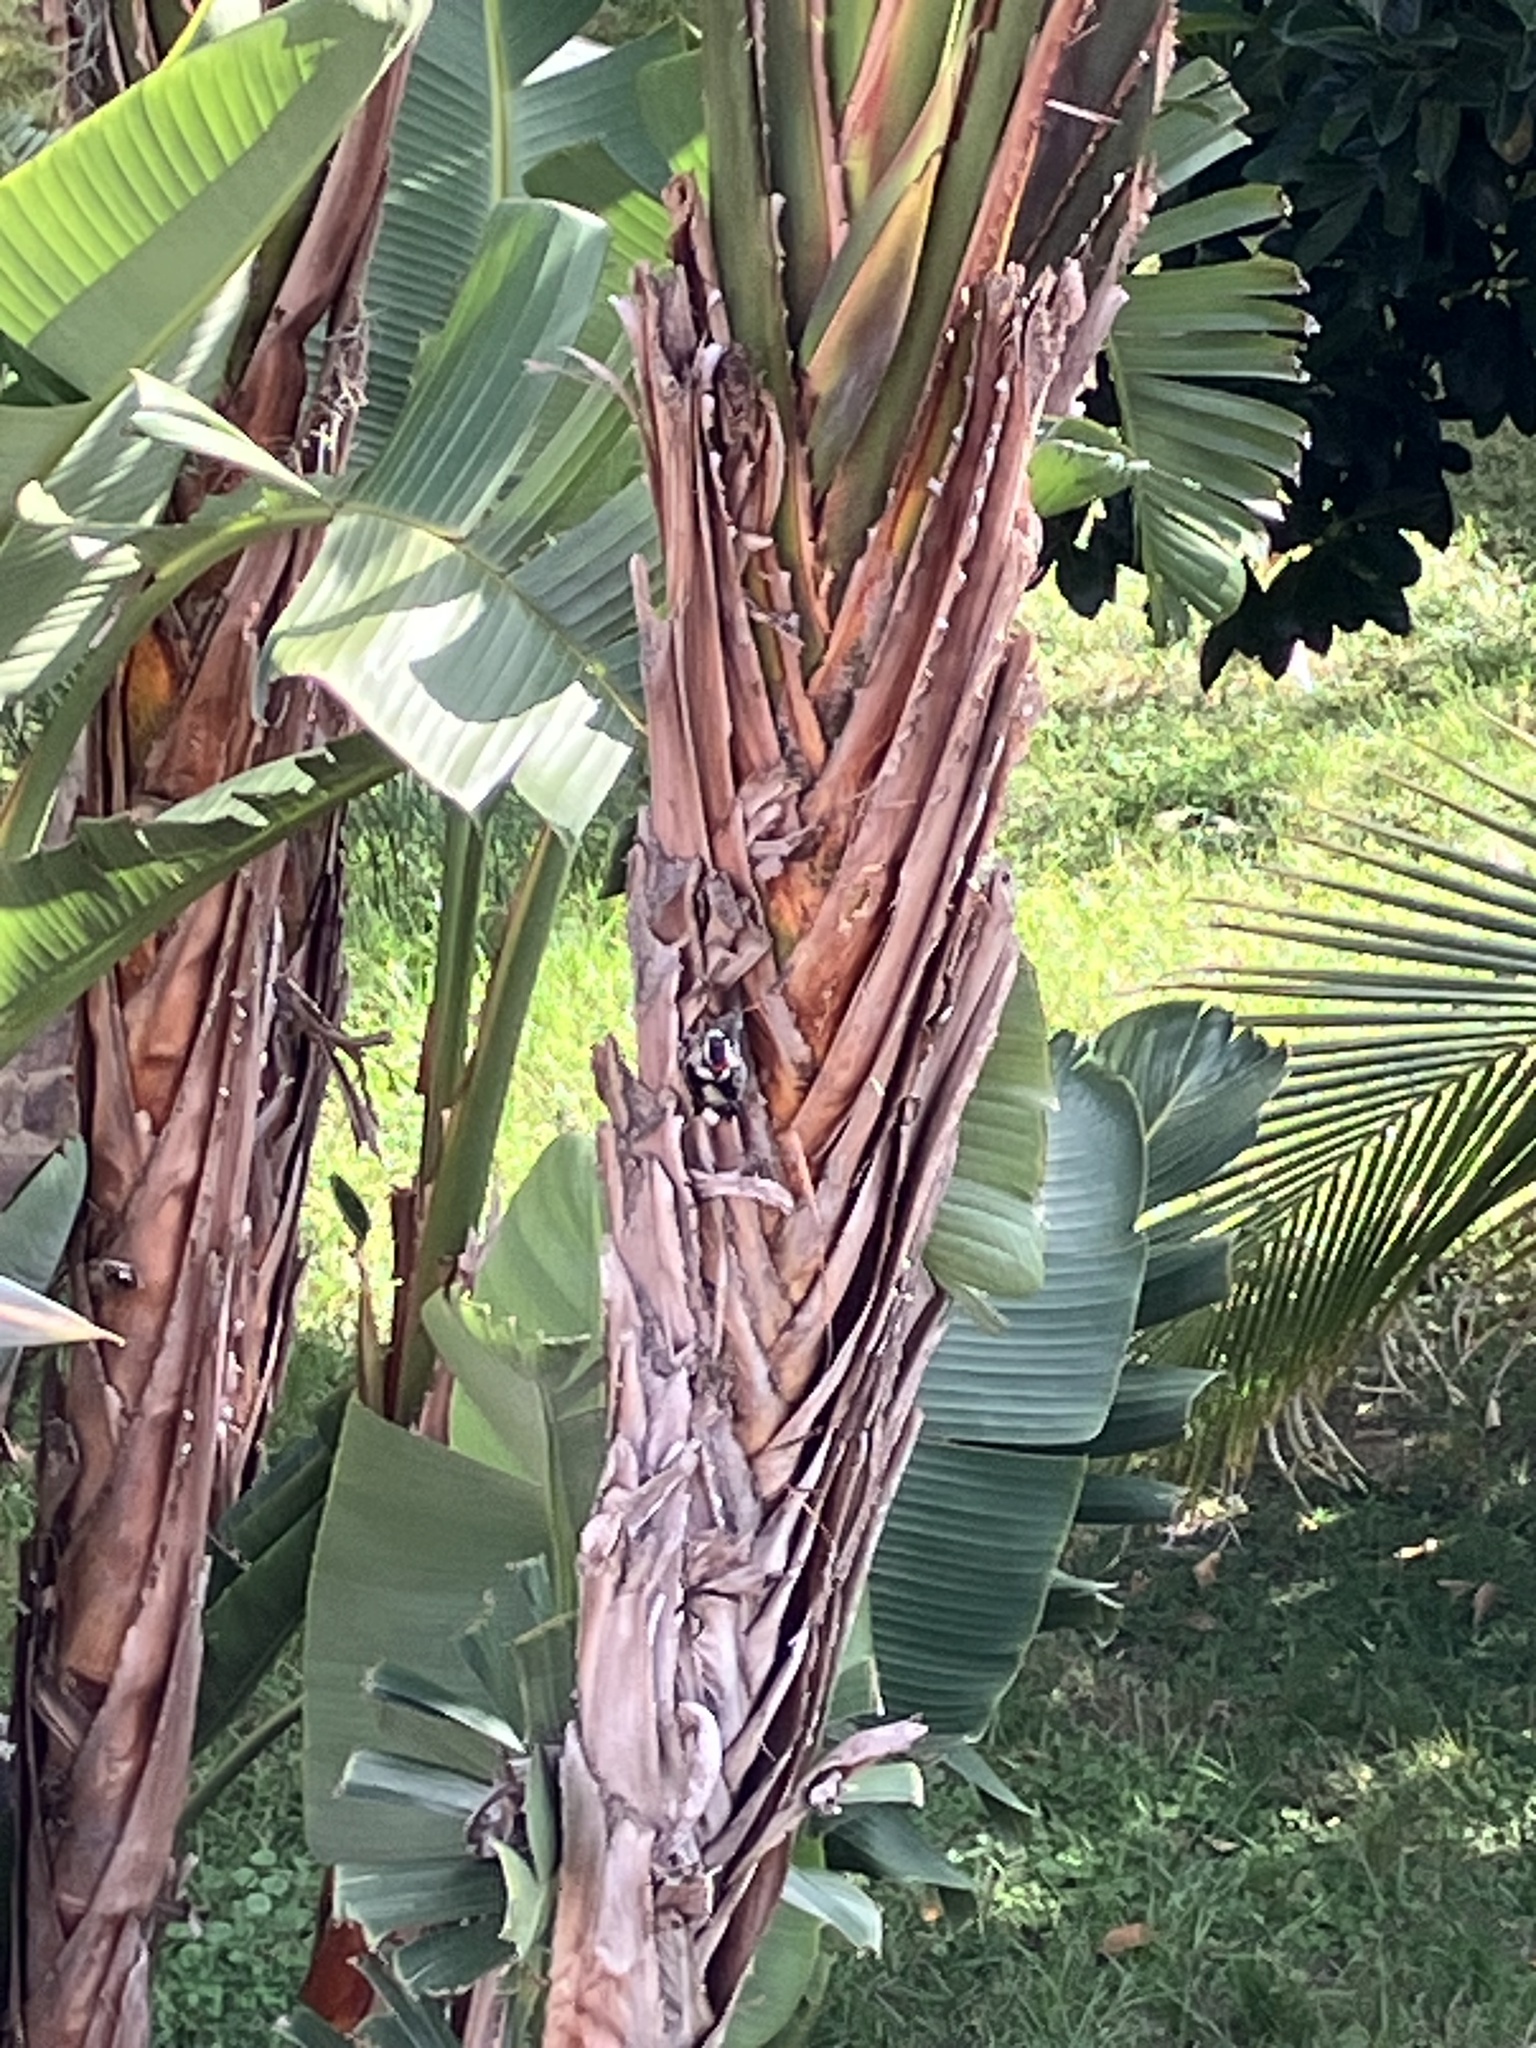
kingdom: Animalia
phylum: Chordata
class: Aves
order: Piciformes
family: Picidae
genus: Dryobates
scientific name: Dryobates pubescens
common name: Downy woodpecker
